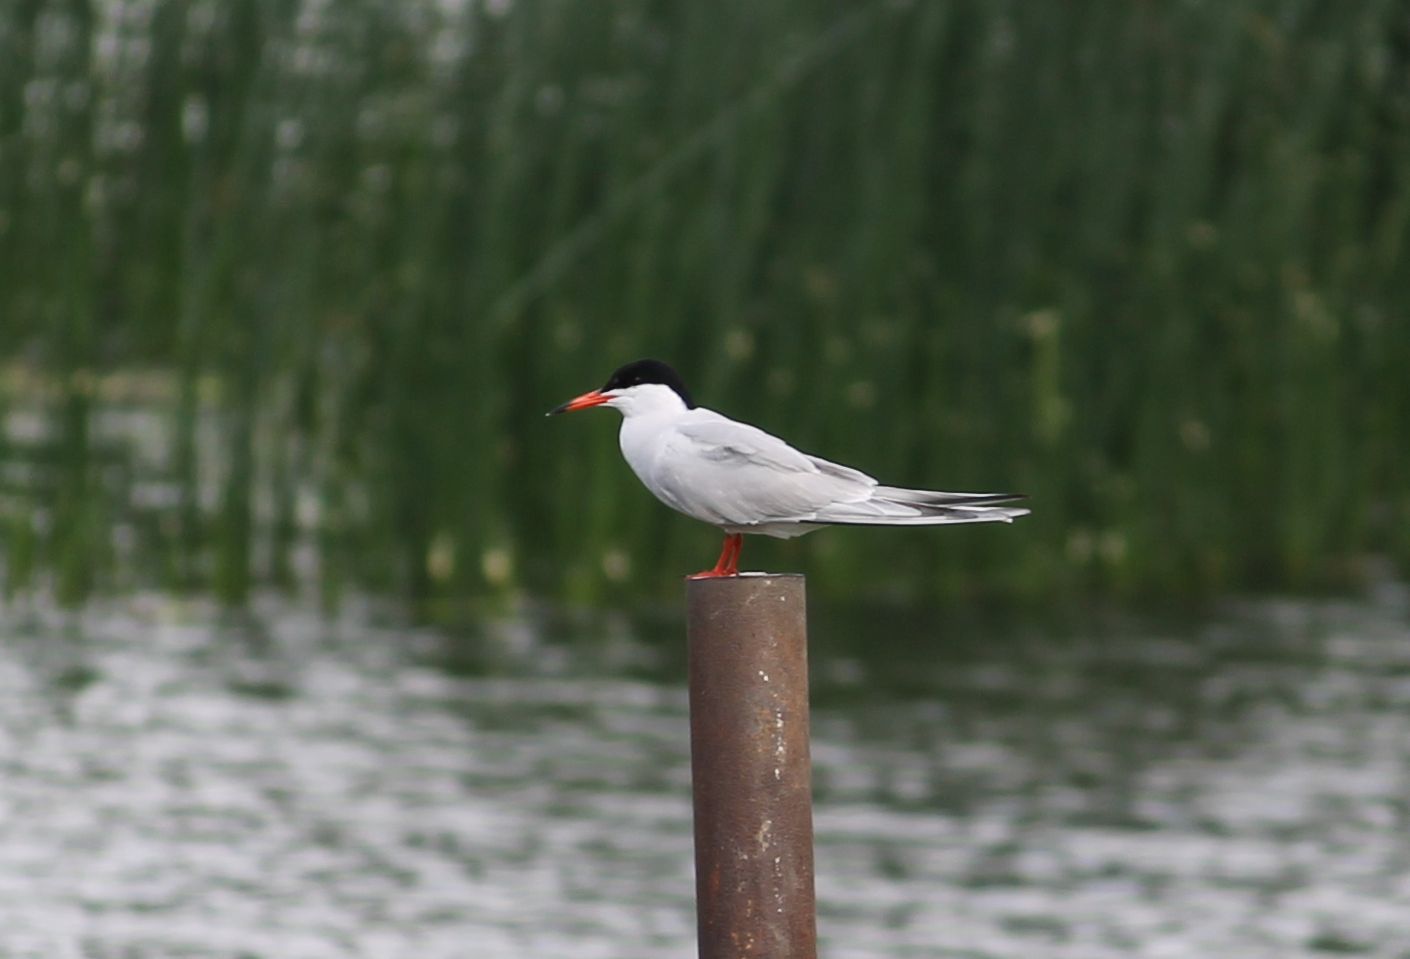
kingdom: Animalia
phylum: Chordata
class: Aves
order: Charadriiformes
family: Laridae
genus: Sterna
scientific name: Sterna hirundo
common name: Common tern
